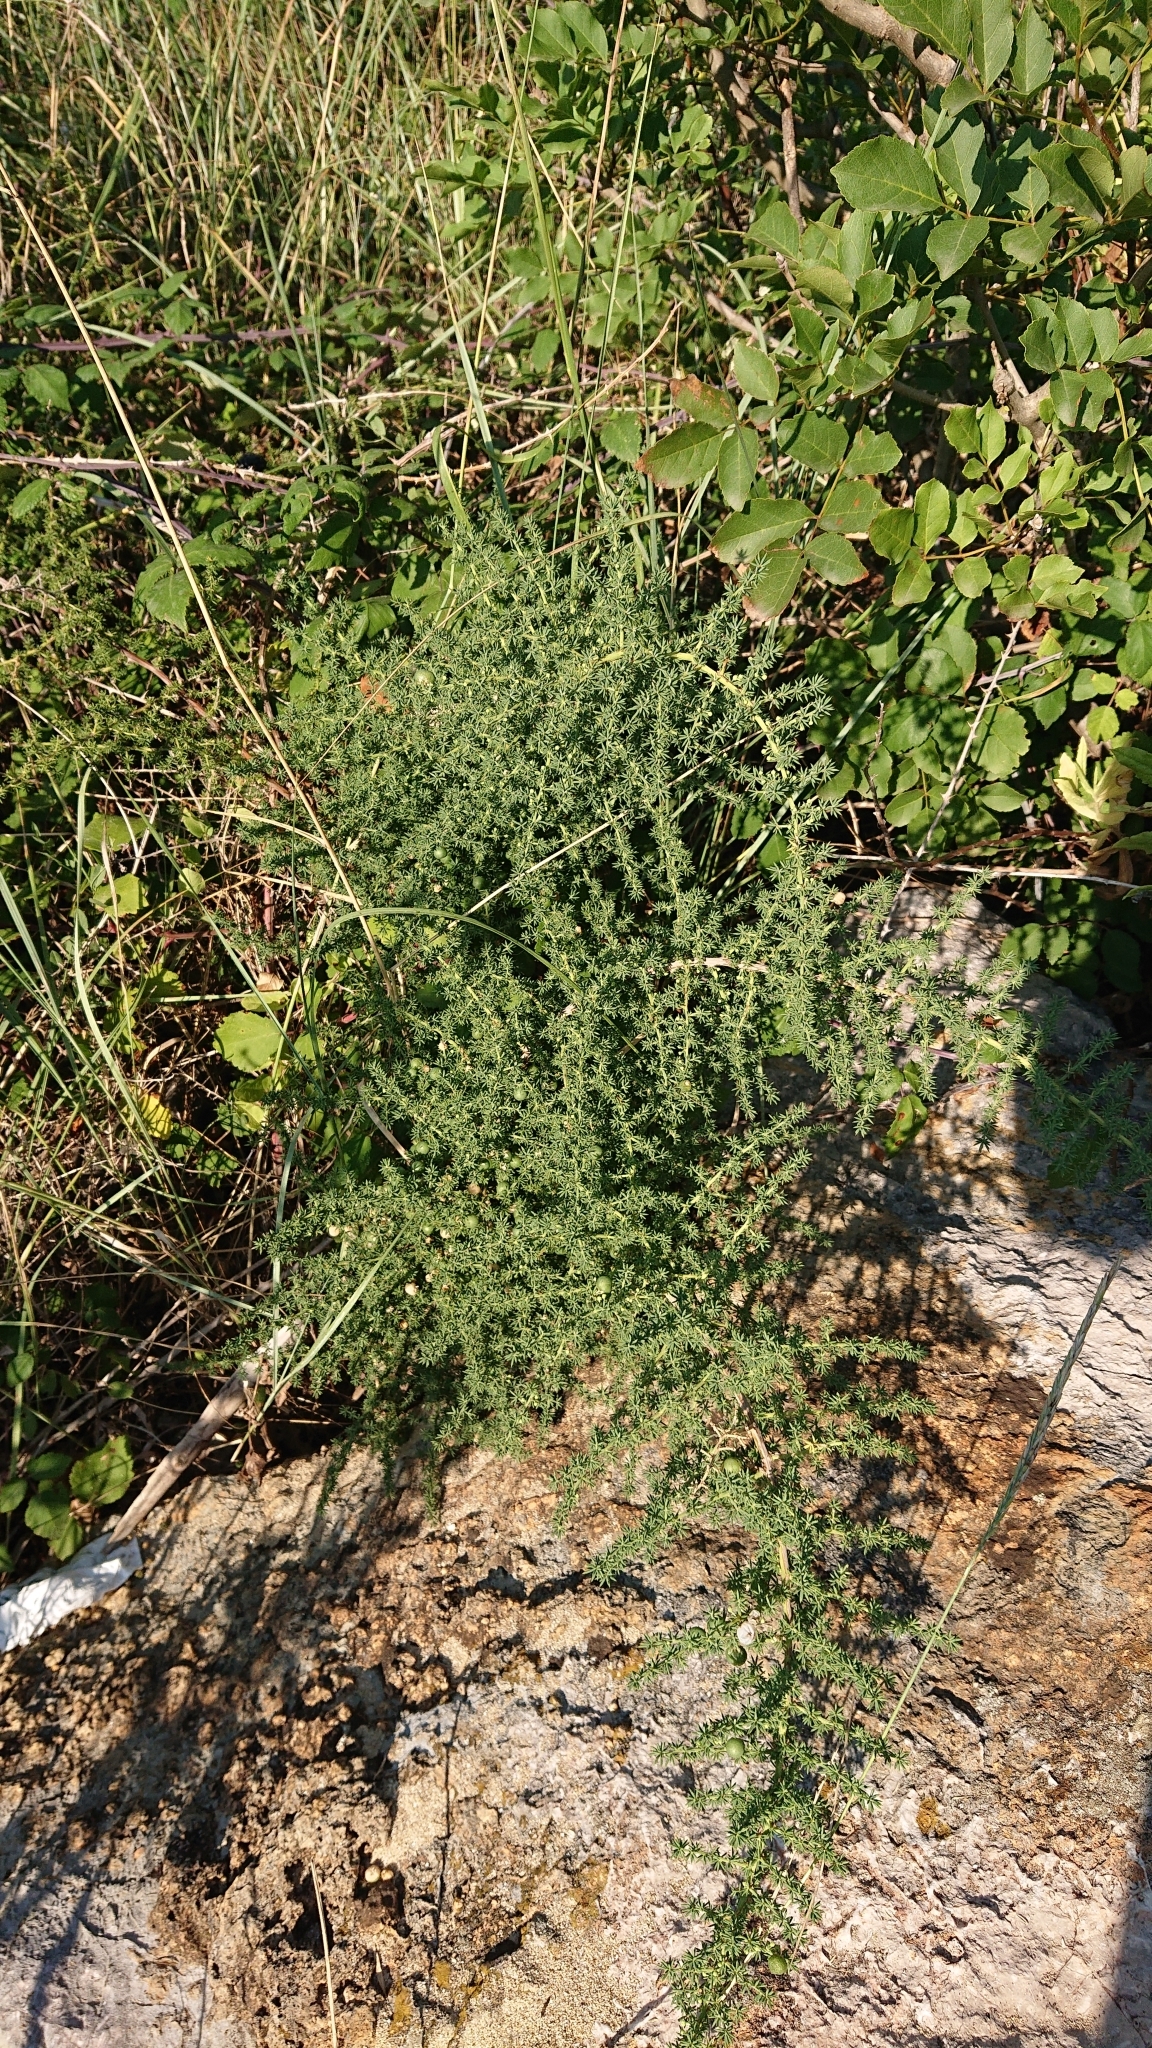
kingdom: Plantae
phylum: Tracheophyta
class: Liliopsida
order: Asparagales
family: Asparagaceae
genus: Asparagus
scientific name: Asparagus acutifolius
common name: Wild asparagus
